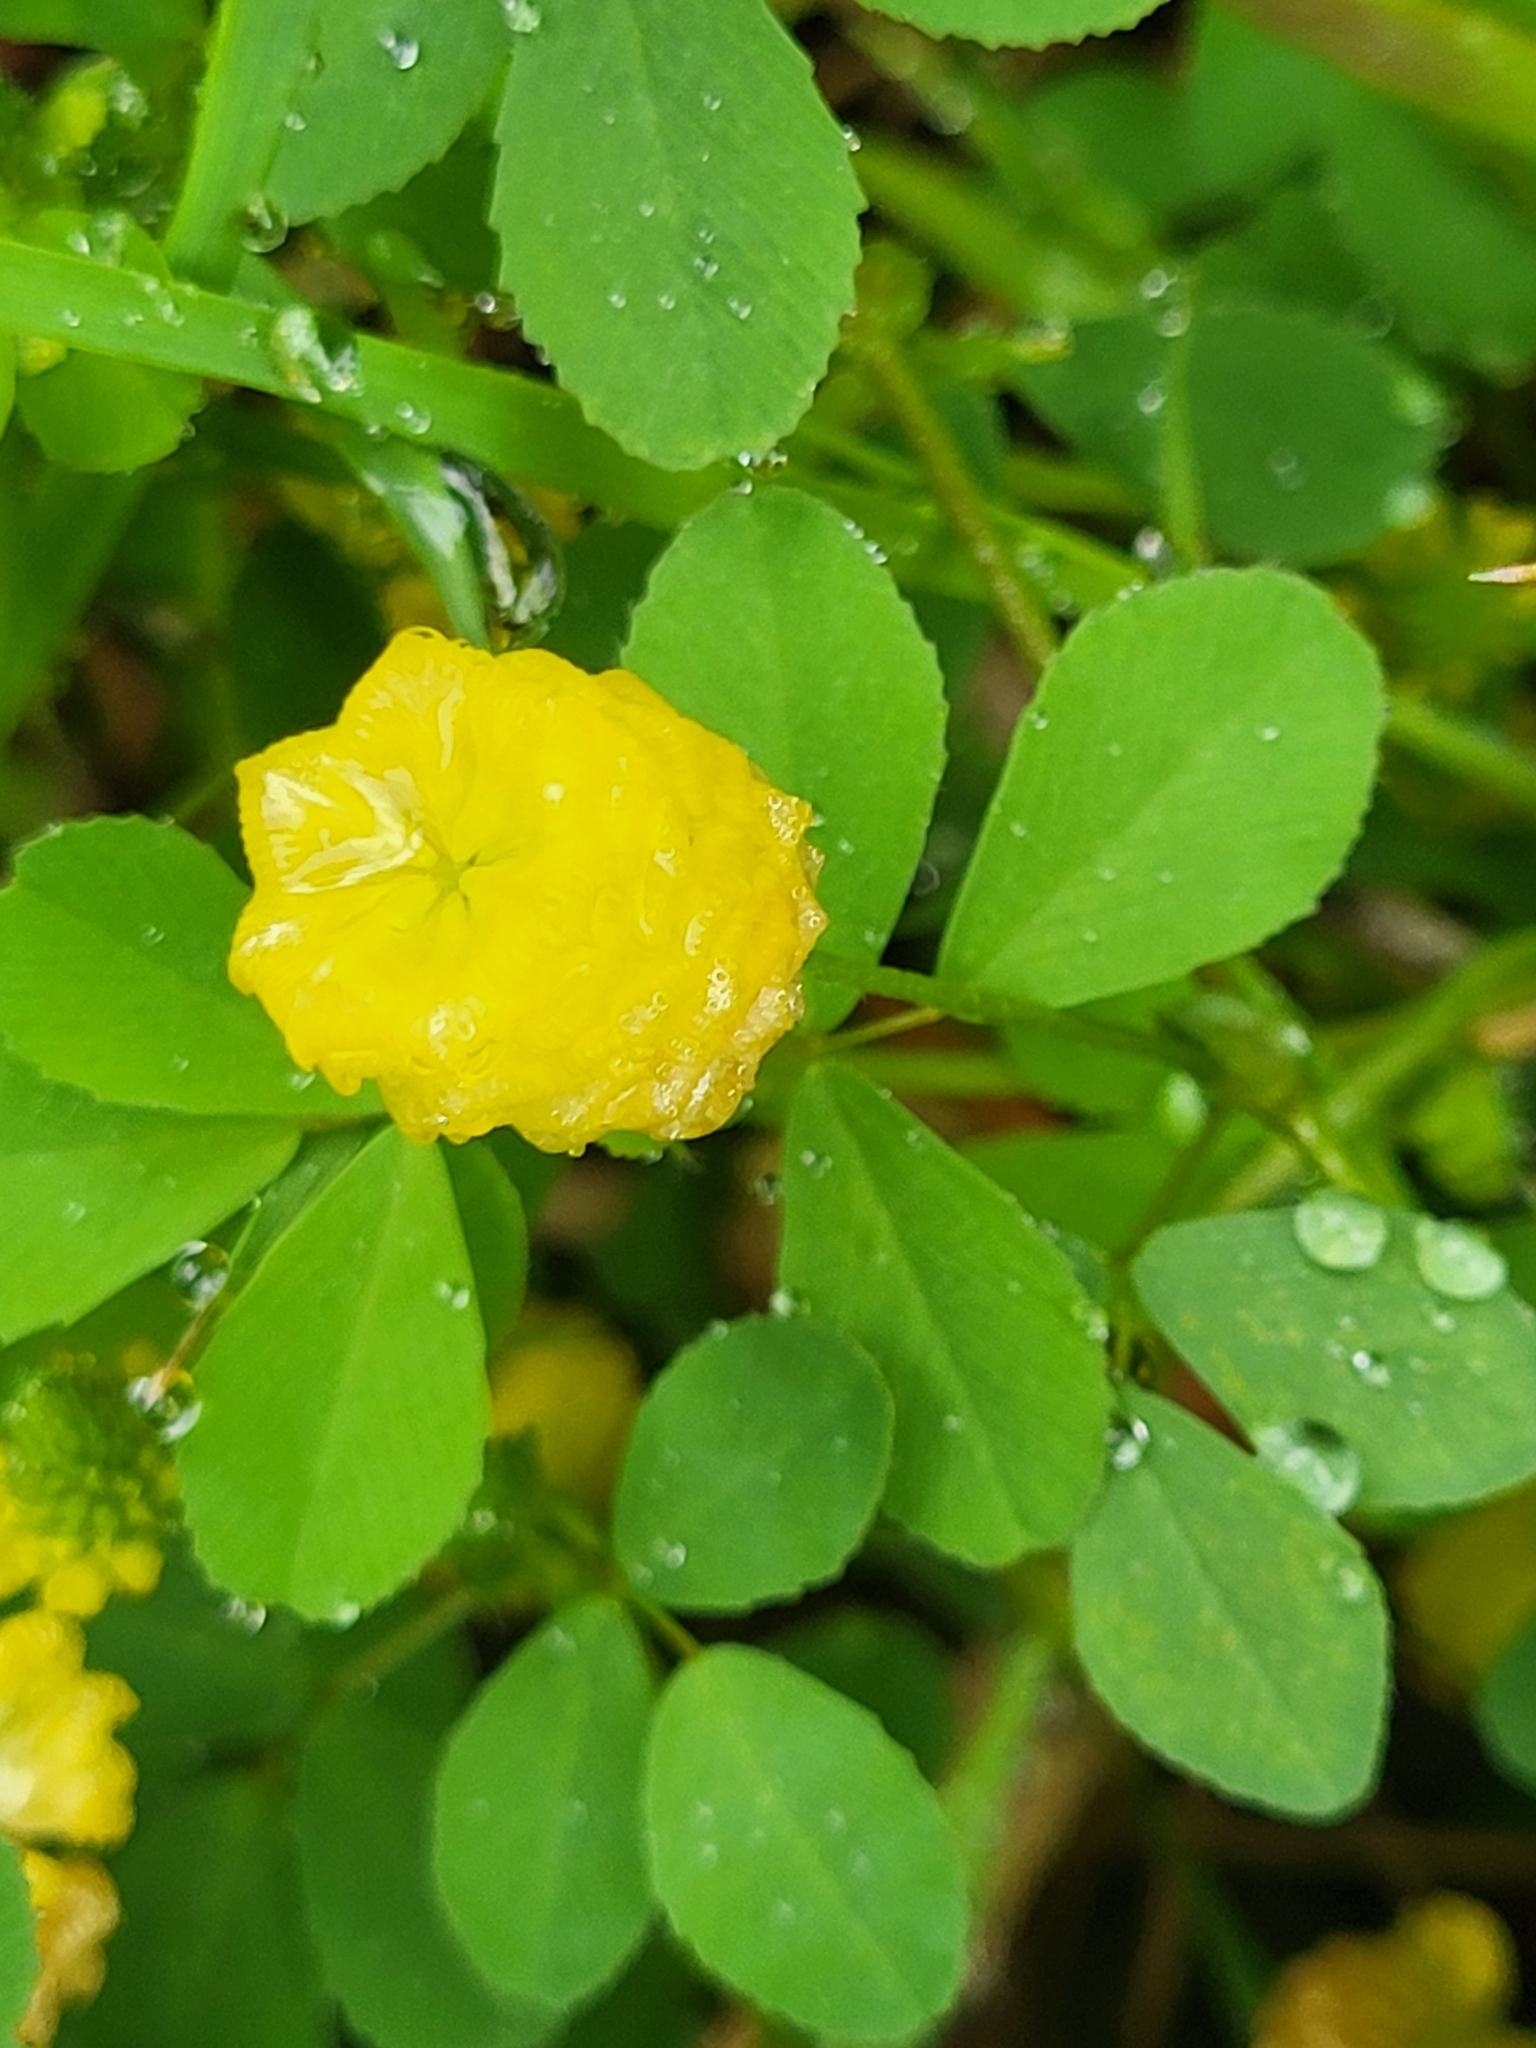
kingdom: Plantae
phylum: Tracheophyta
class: Magnoliopsida
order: Fabales
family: Fabaceae
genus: Trifolium
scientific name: Trifolium campestre
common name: Field clover
